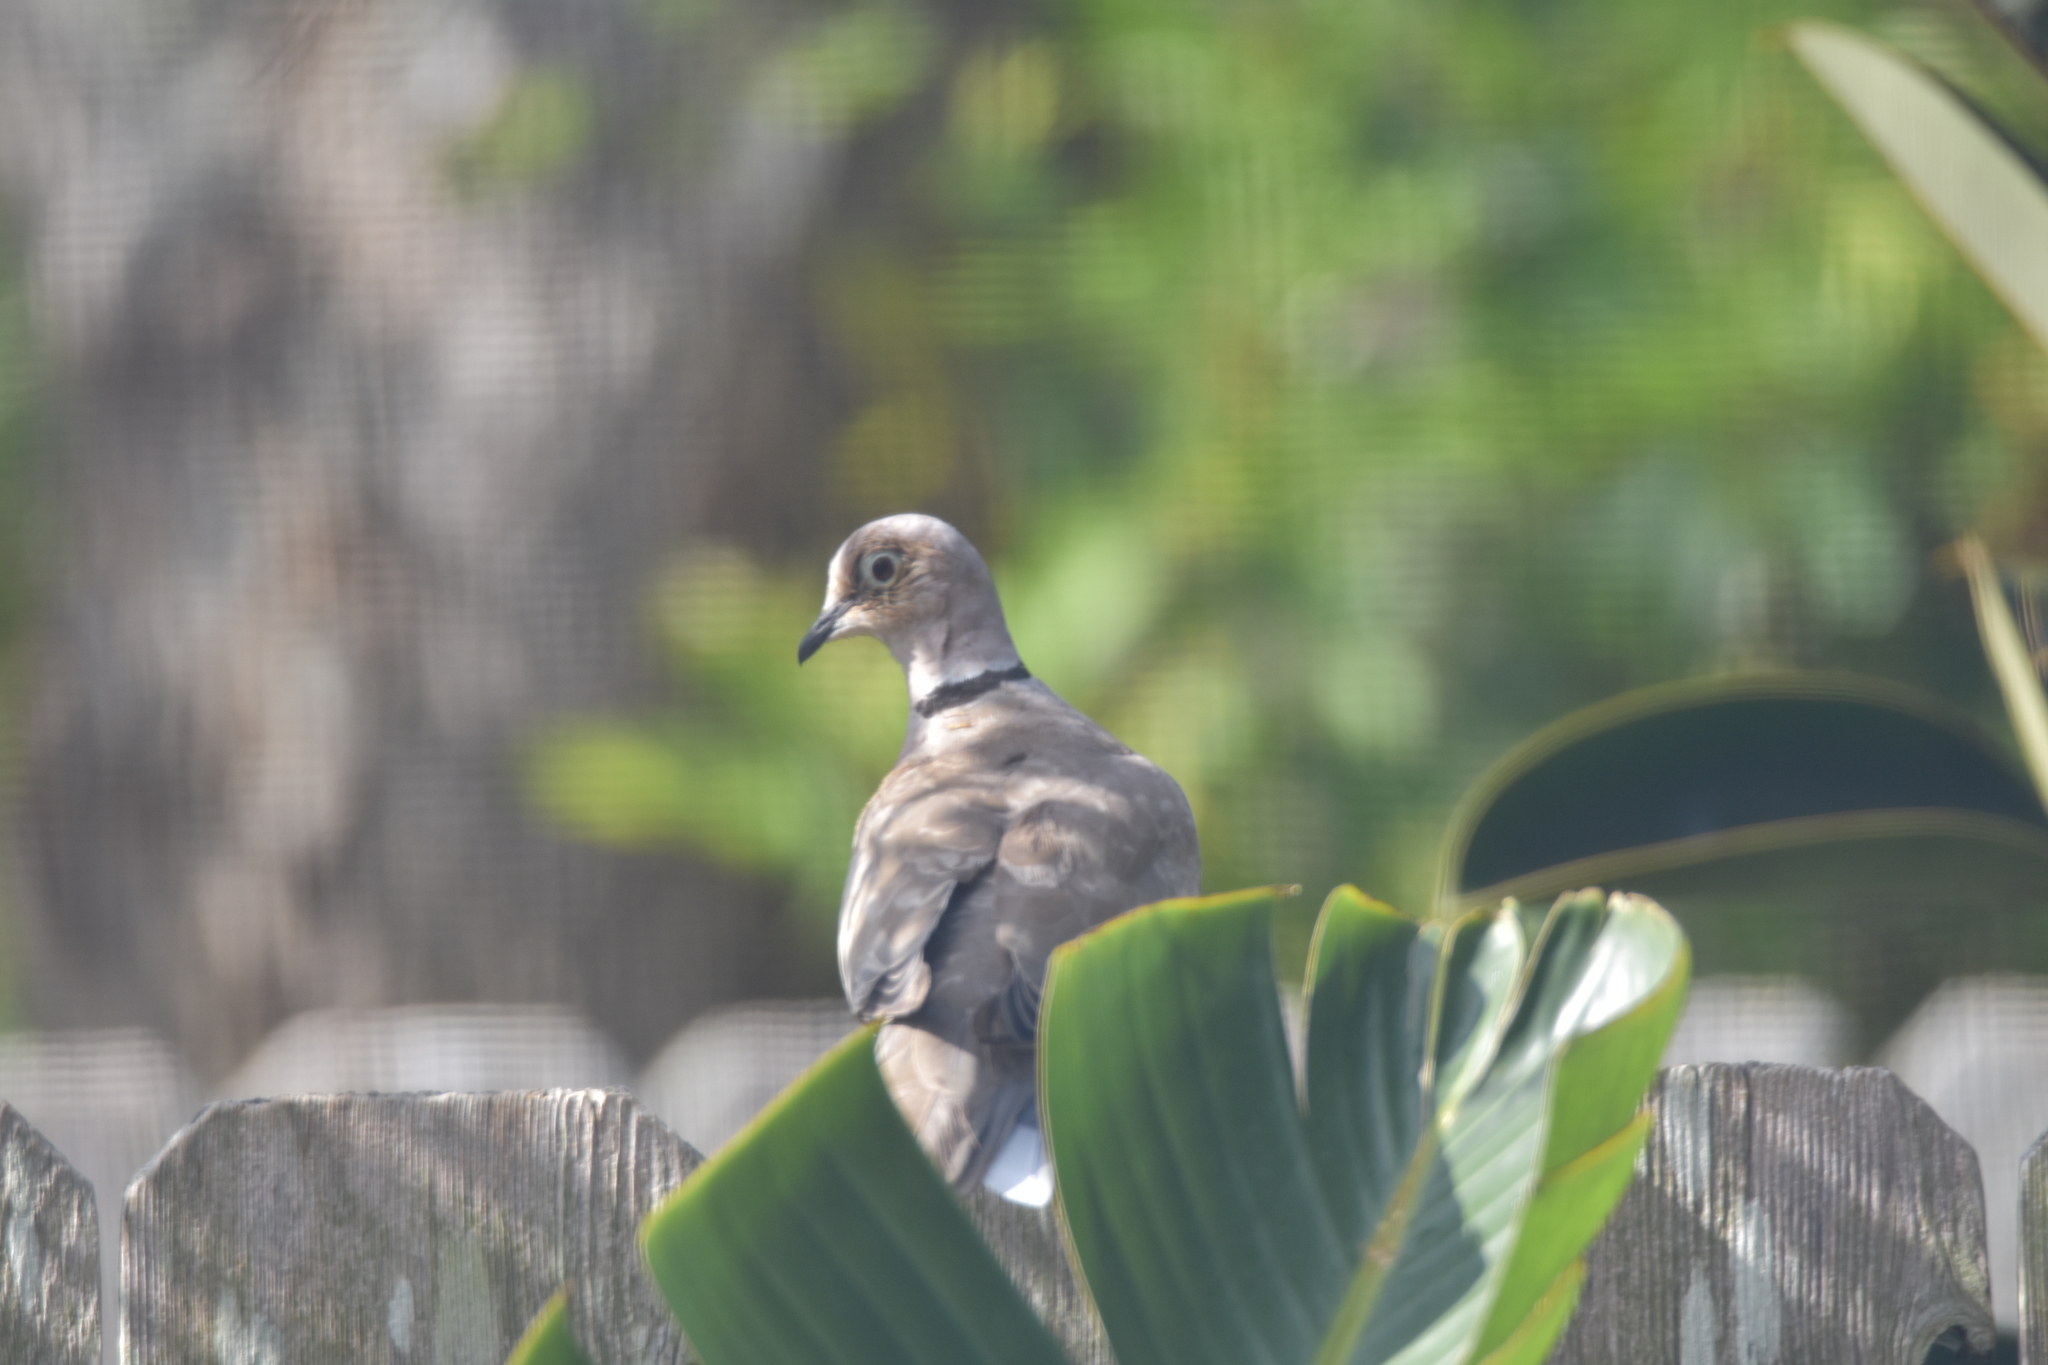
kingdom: Animalia
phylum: Chordata
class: Aves
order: Columbiformes
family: Columbidae
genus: Streptopelia
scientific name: Streptopelia decaocto
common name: Eurasian collared dove
